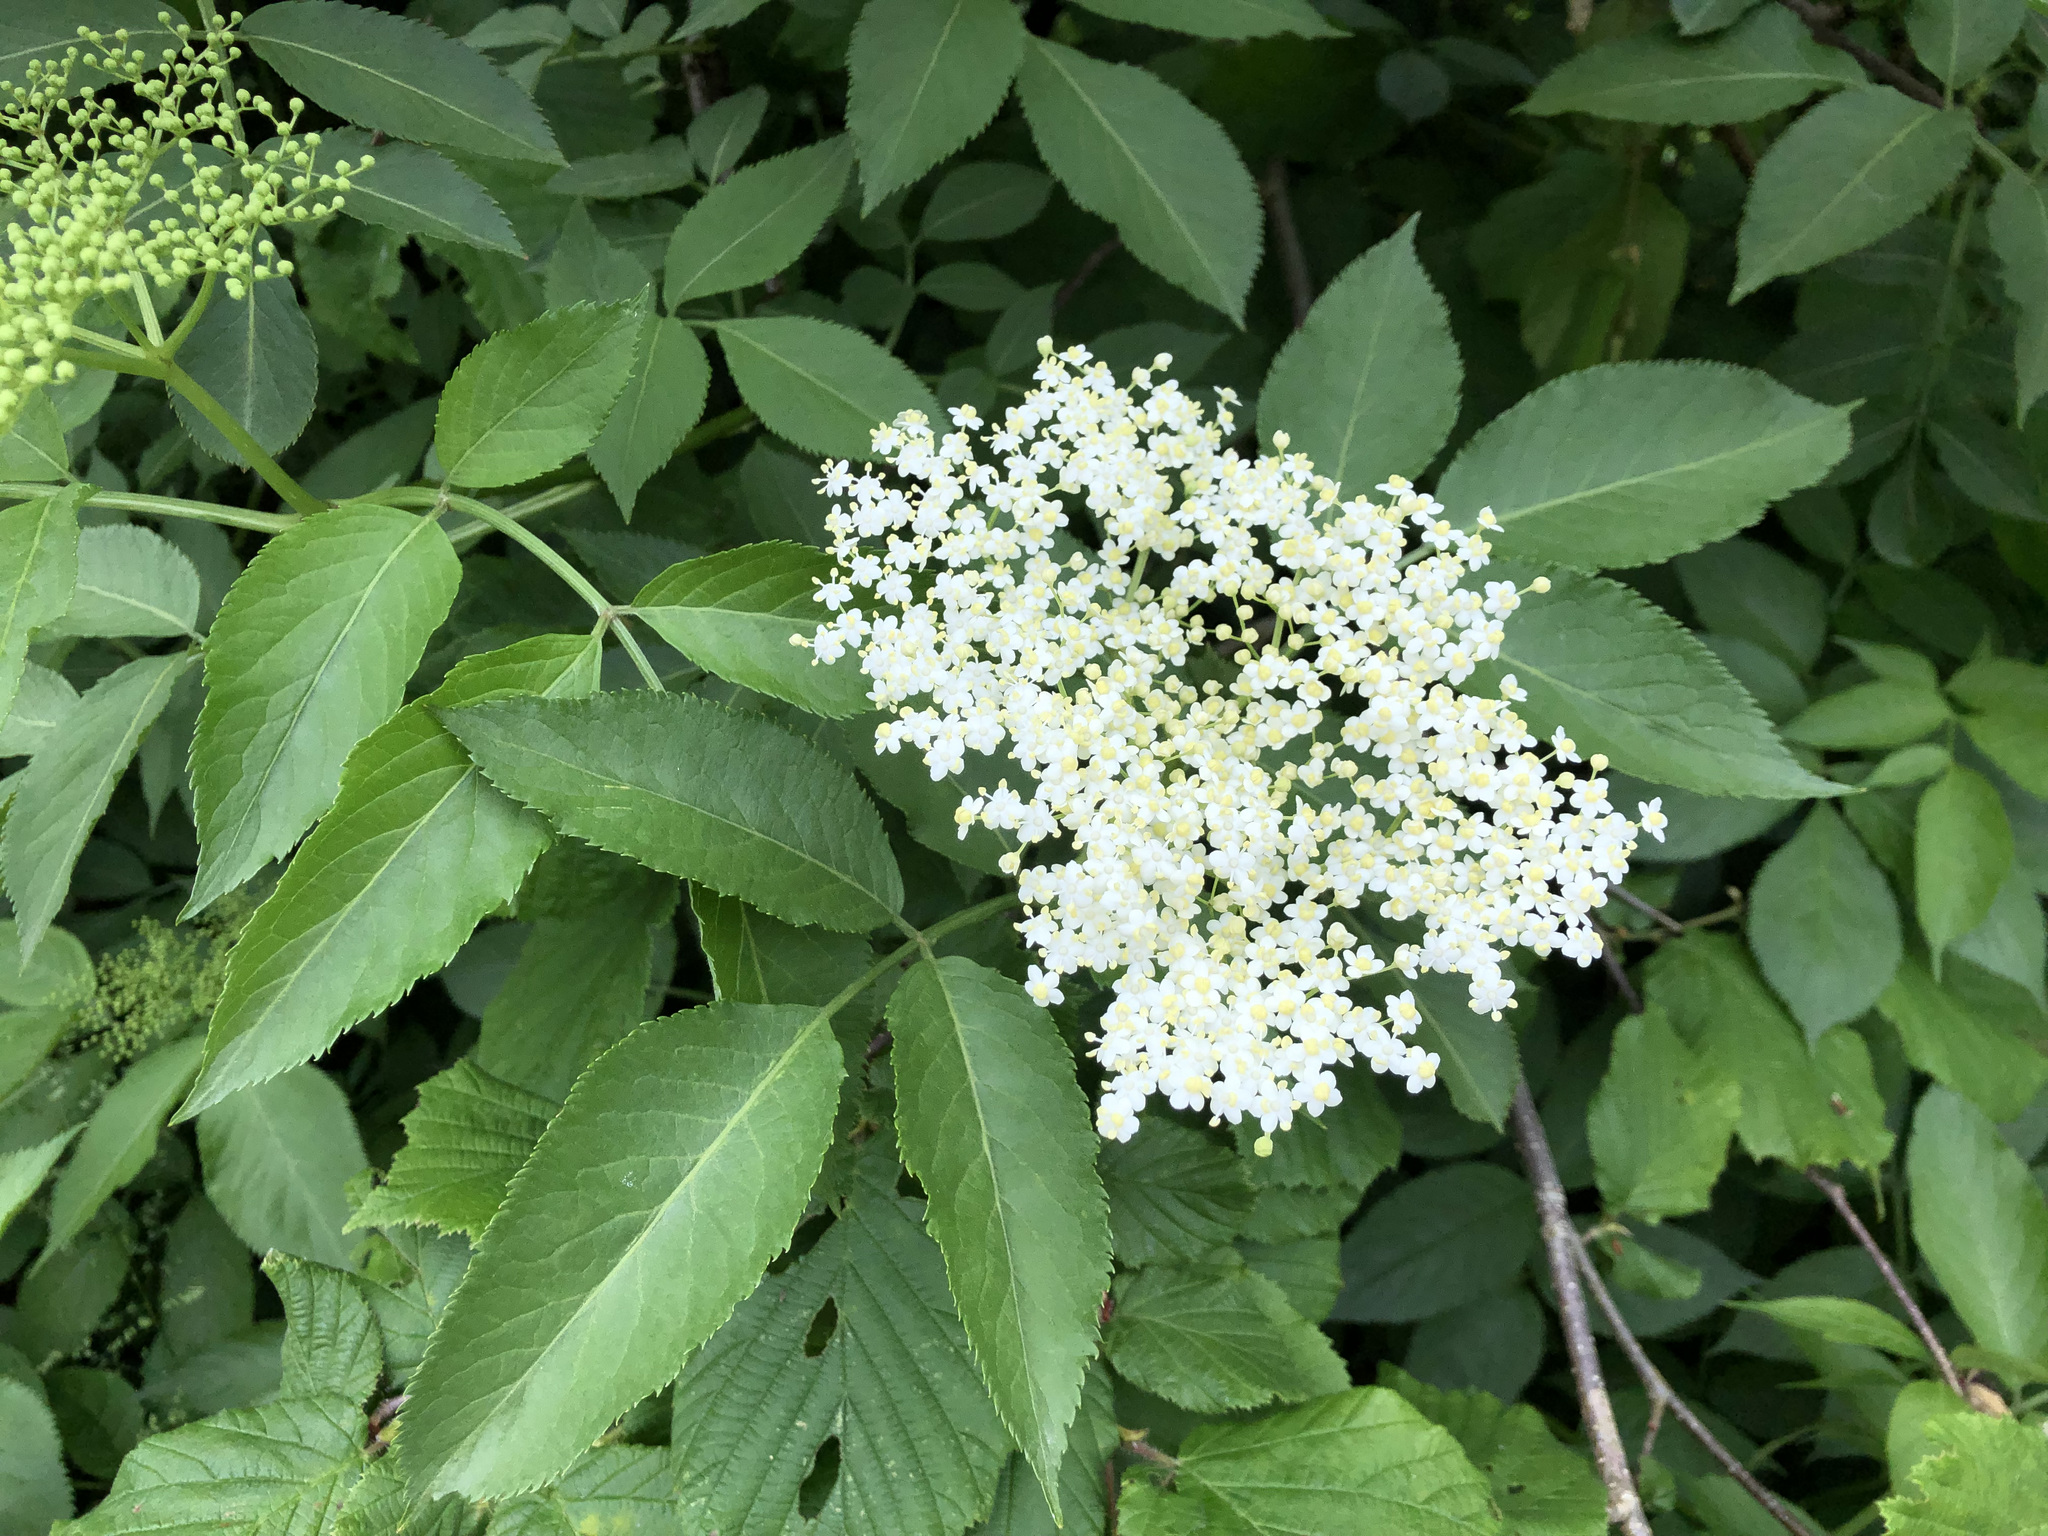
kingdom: Plantae
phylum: Tracheophyta
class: Magnoliopsida
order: Dipsacales
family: Viburnaceae
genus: Sambucus
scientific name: Sambucus nigra
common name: Elder
